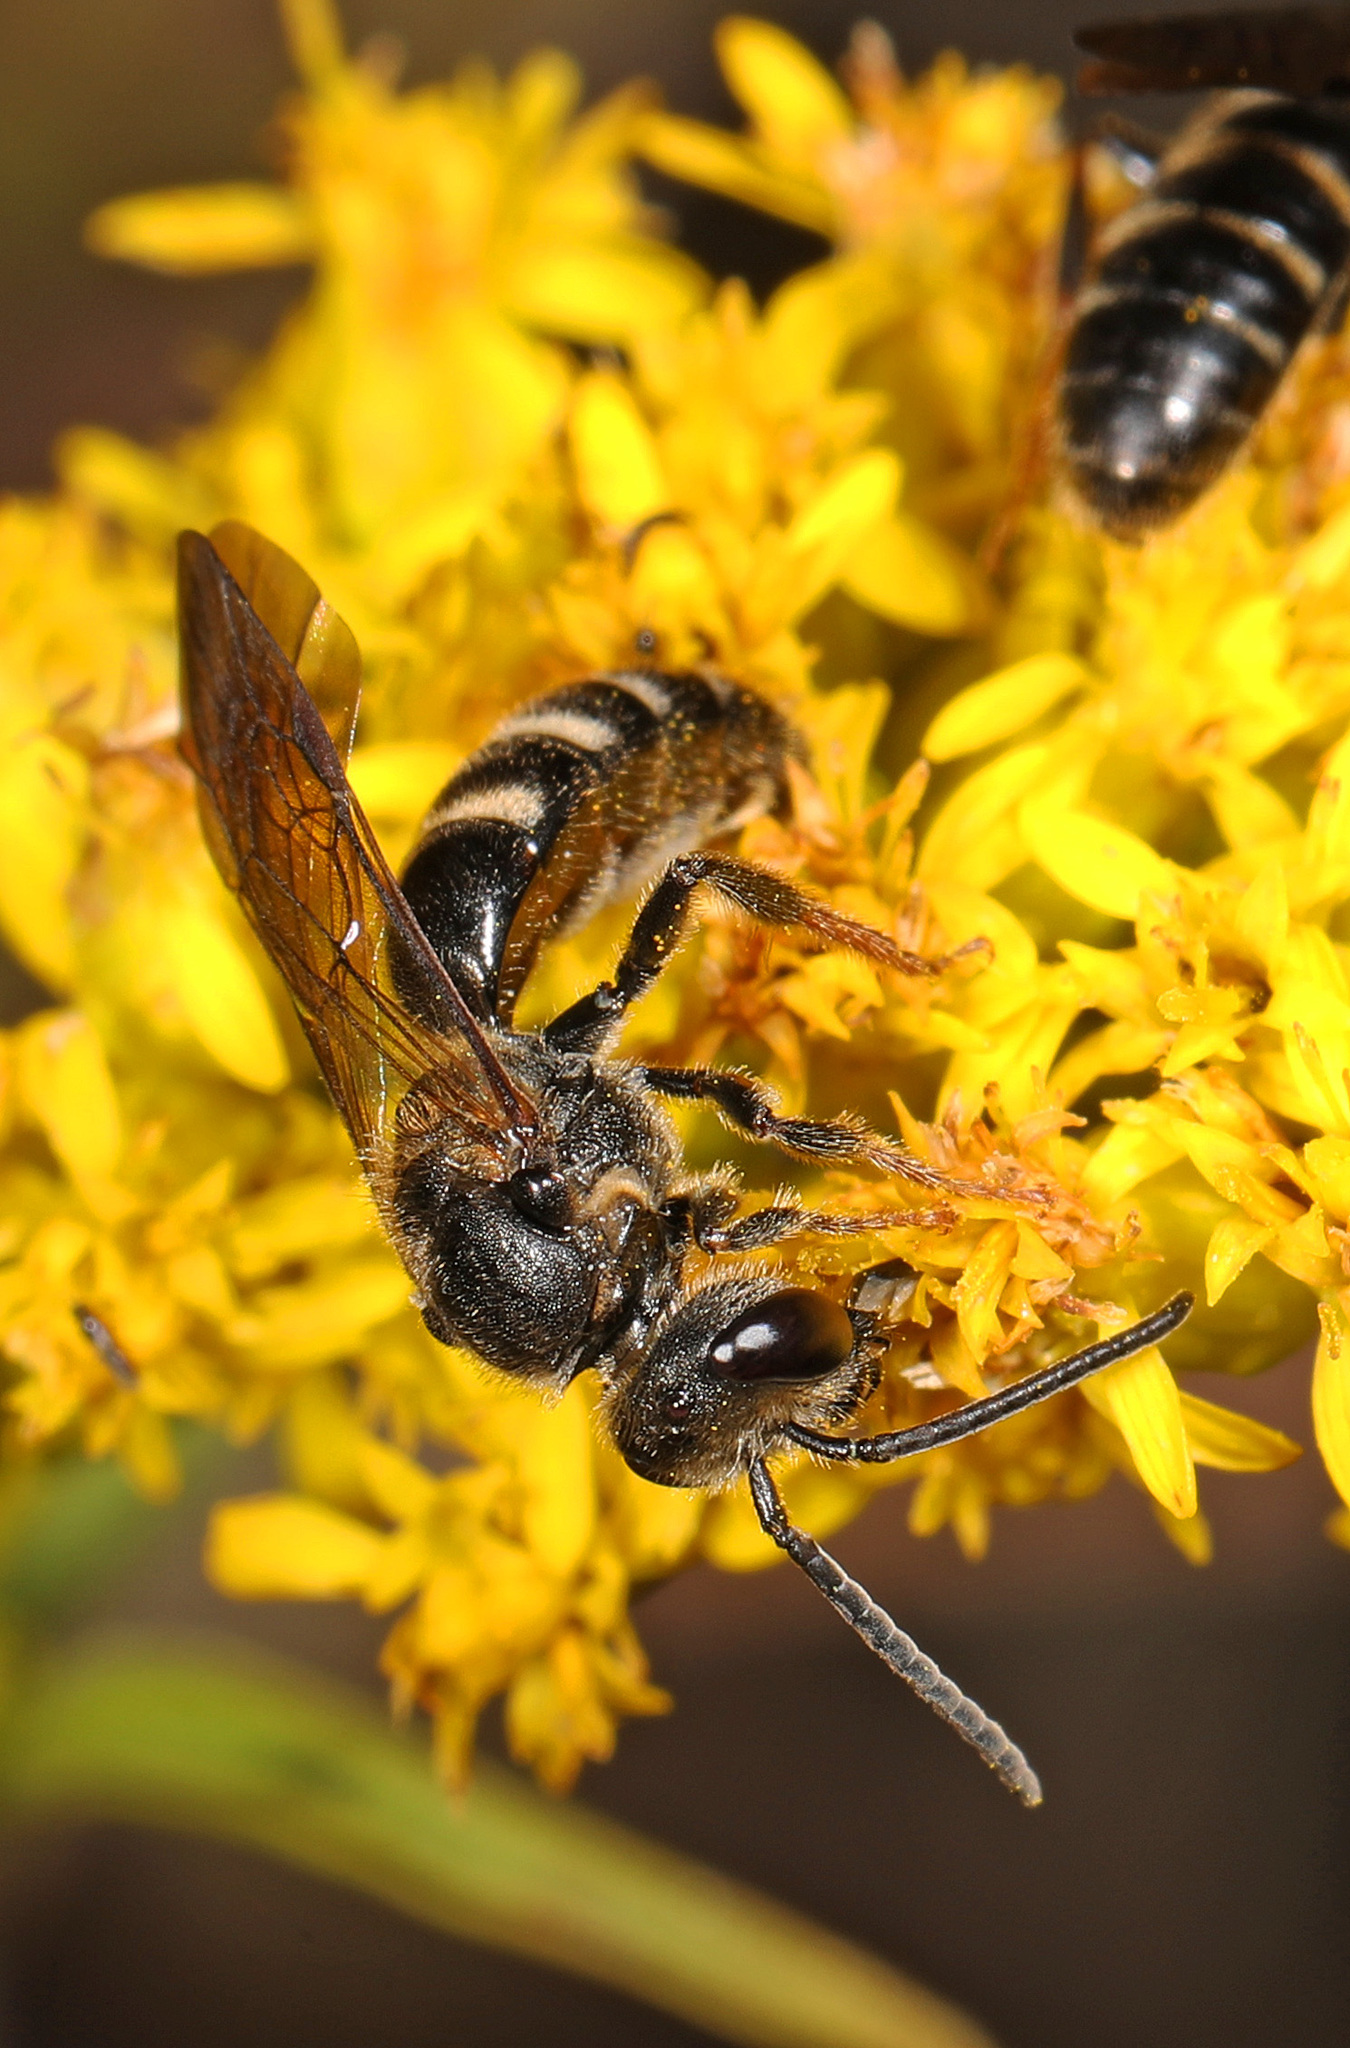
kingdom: Animalia
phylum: Arthropoda
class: Insecta
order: Hymenoptera
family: Halictidae
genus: Lasioglossum
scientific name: Lasioglossum fuscipenne
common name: Brown-winged sweat bee
